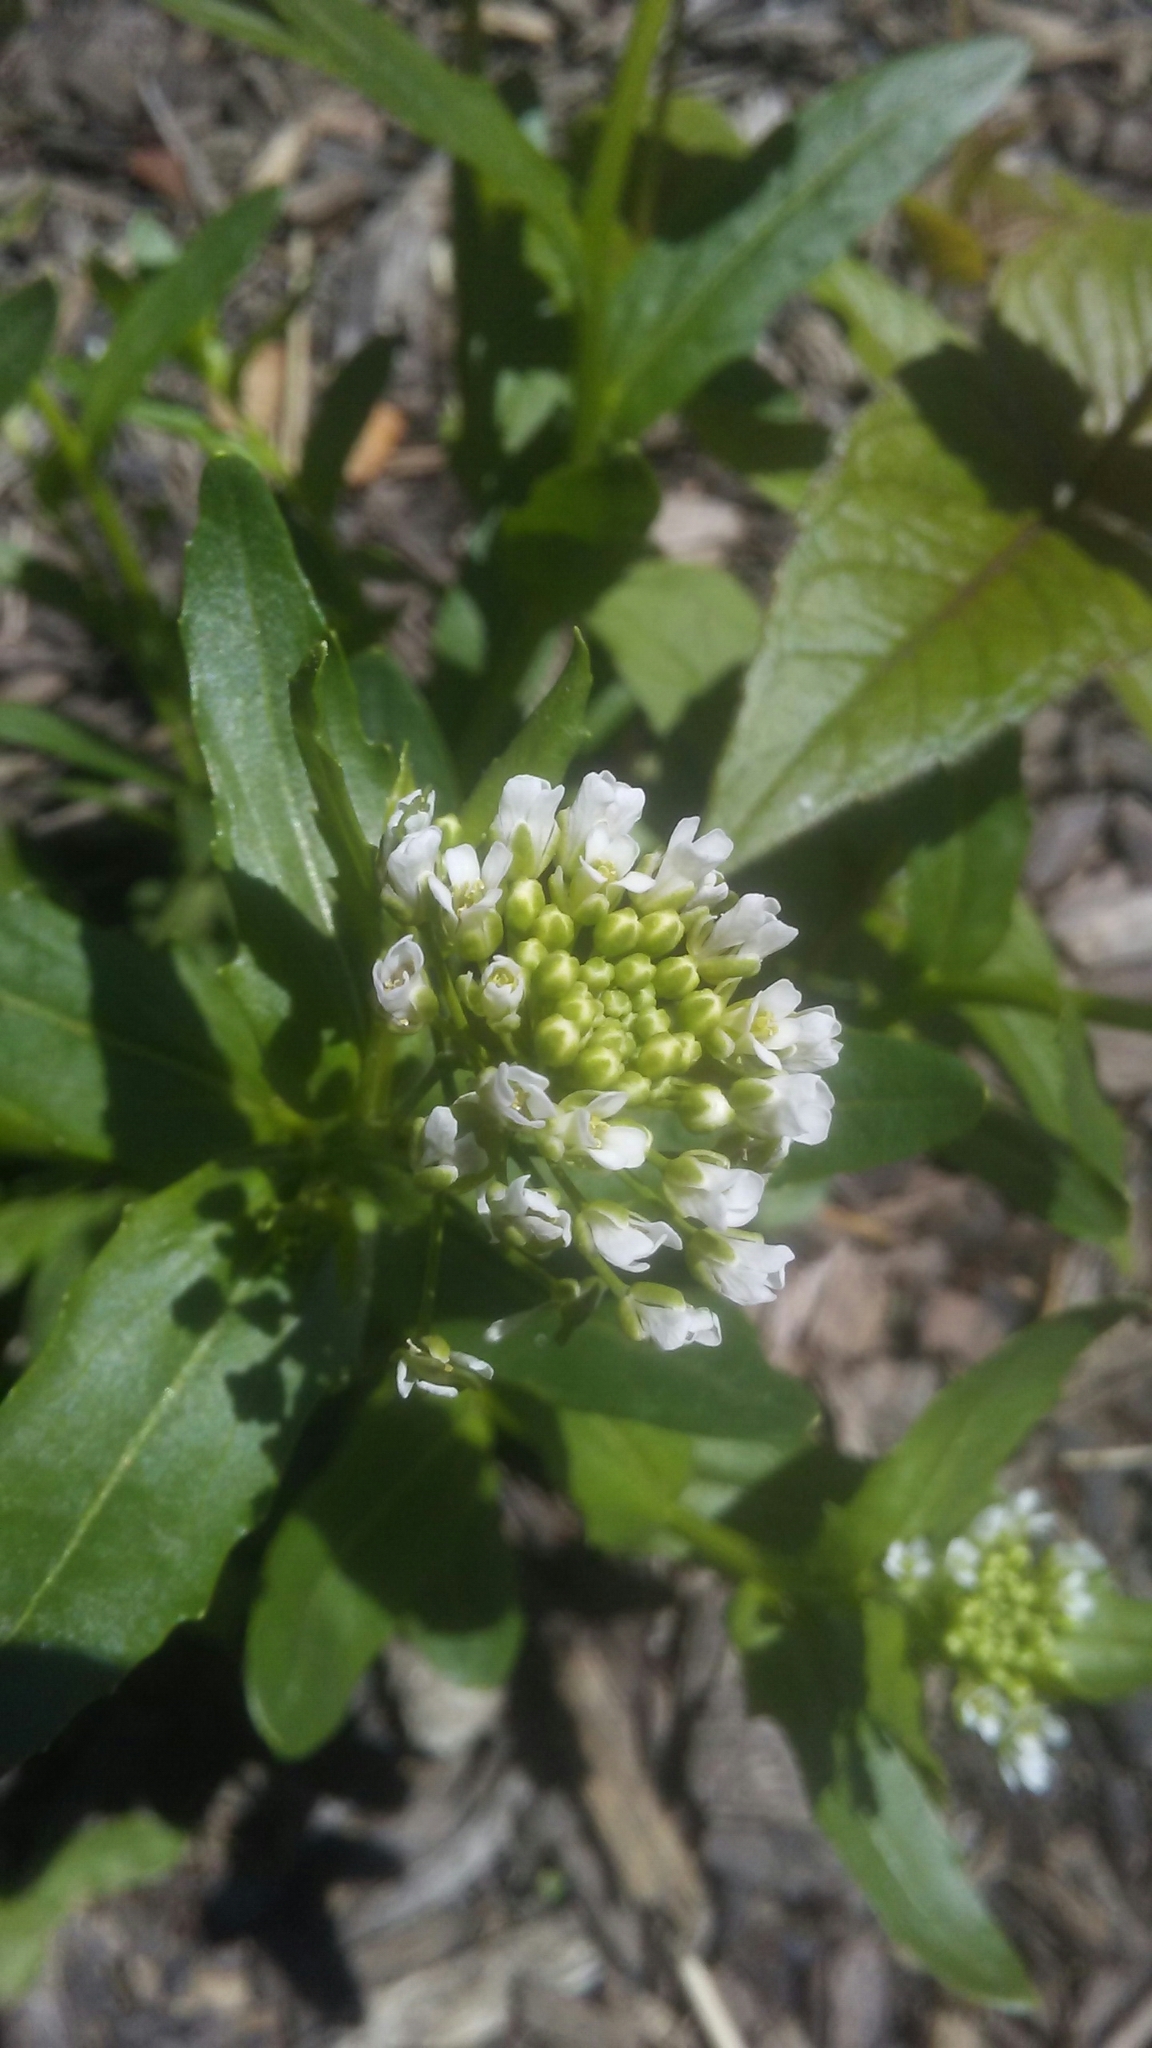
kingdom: Plantae
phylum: Tracheophyta
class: Magnoliopsida
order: Brassicales
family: Brassicaceae
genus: Thlaspi
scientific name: Thlaspi arvense
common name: Field pennycress
